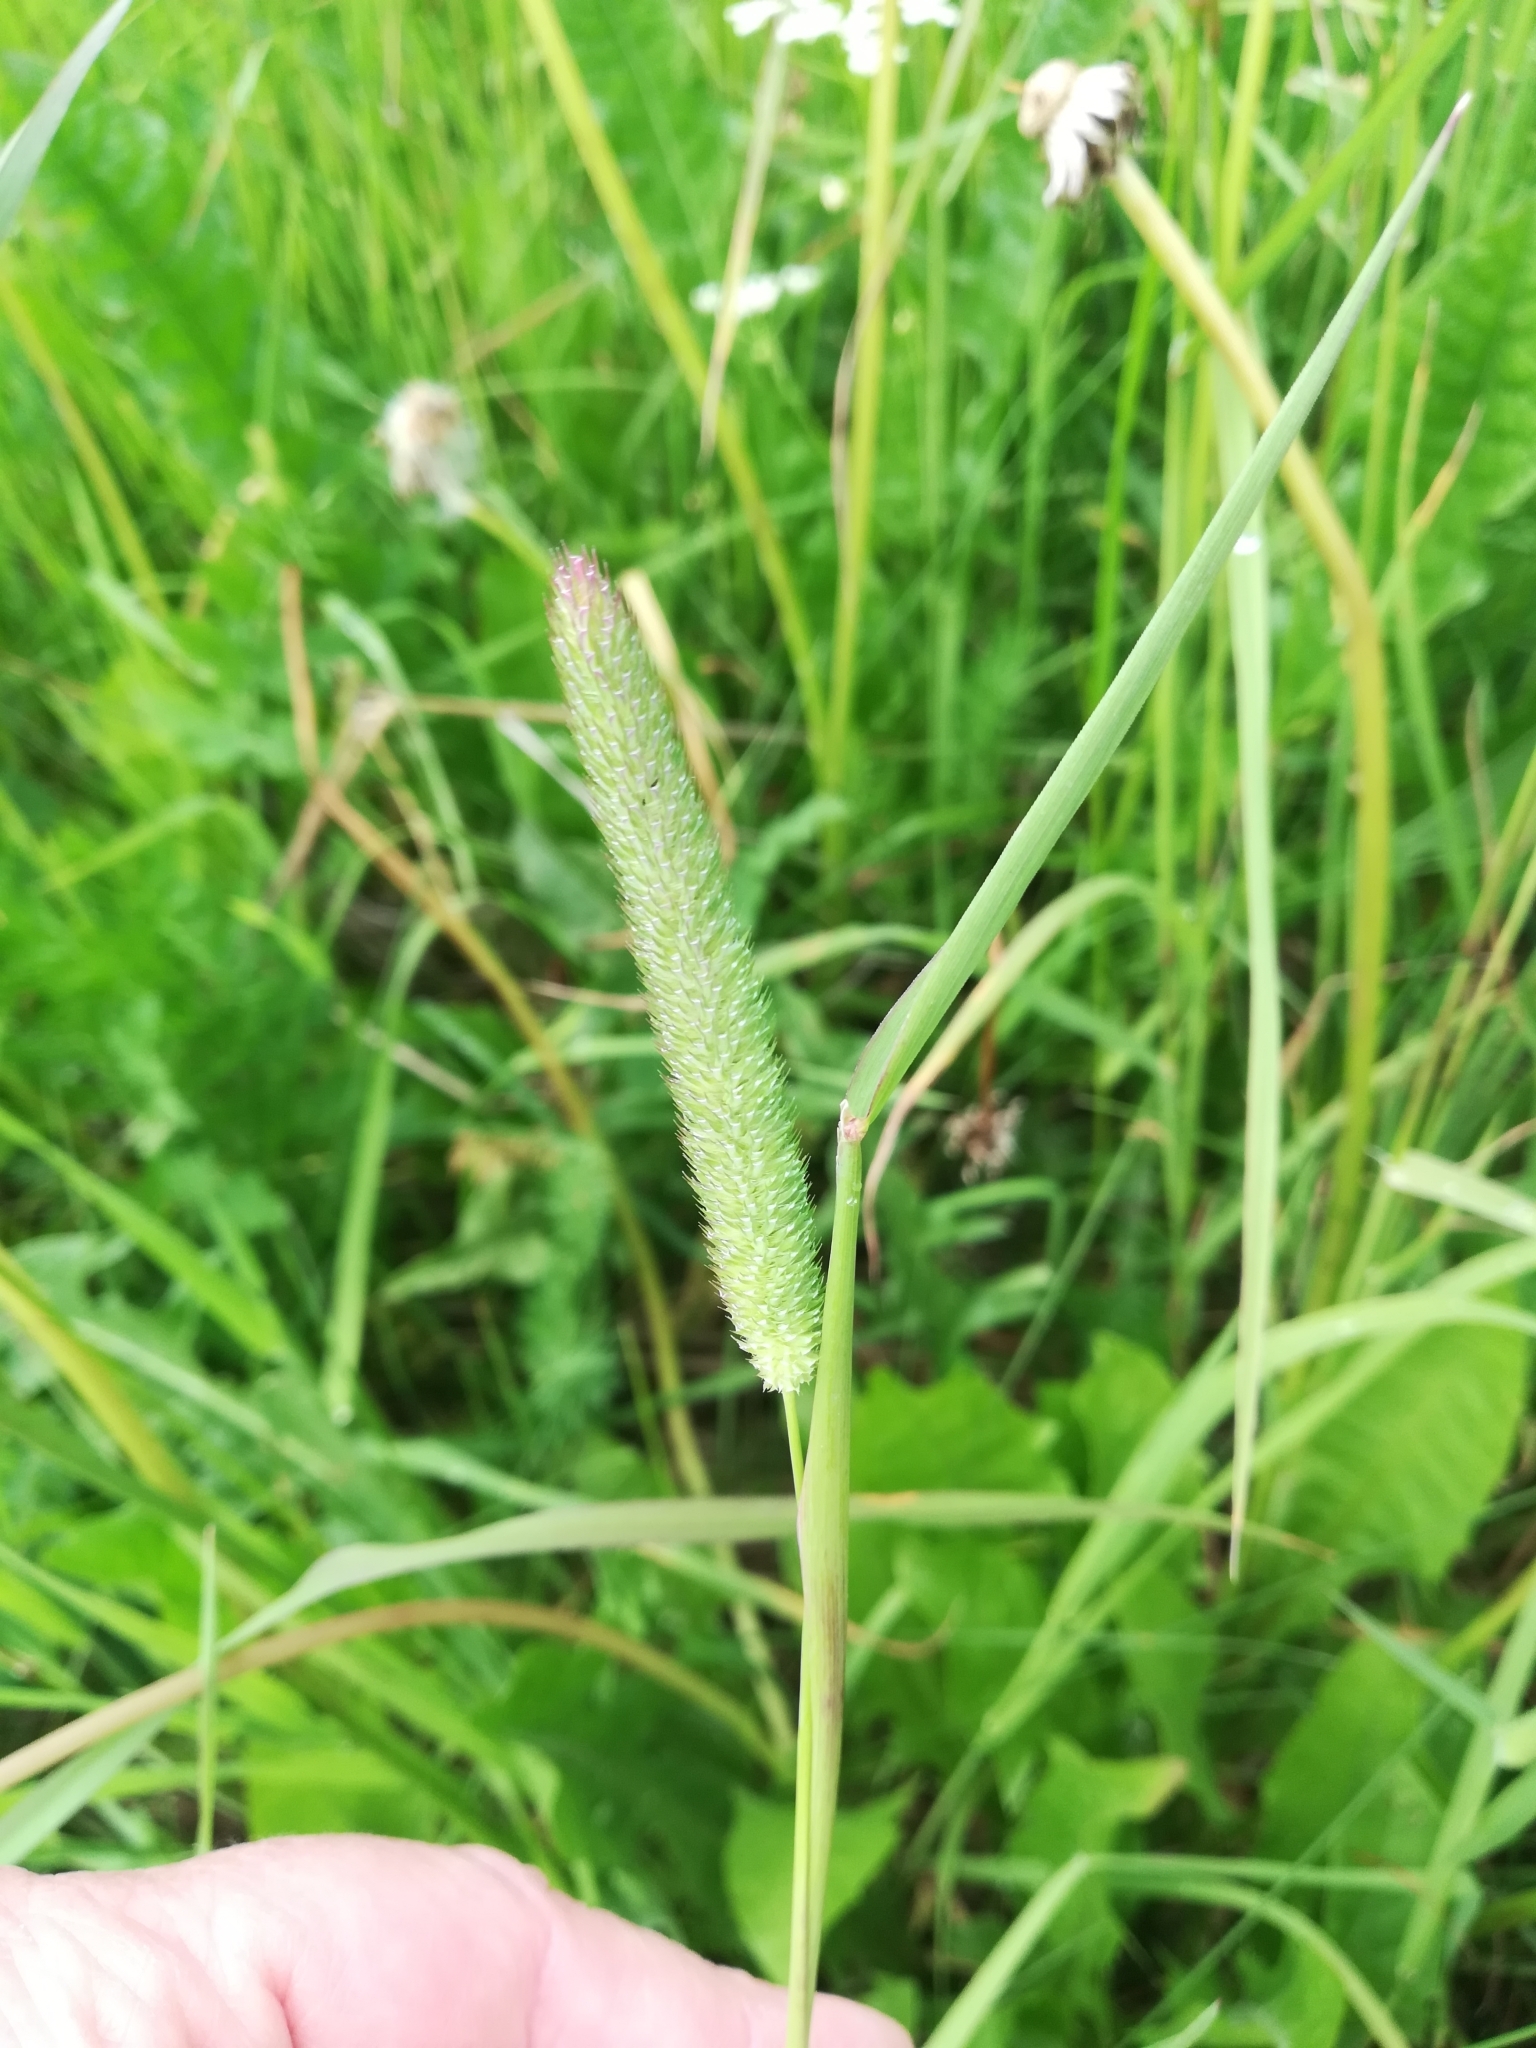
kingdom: Plantae
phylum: Tracheophyta
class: Liliopsida
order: Poales
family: Poaceae
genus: Phleum
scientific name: Phleum pratense
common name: Timothy grass
